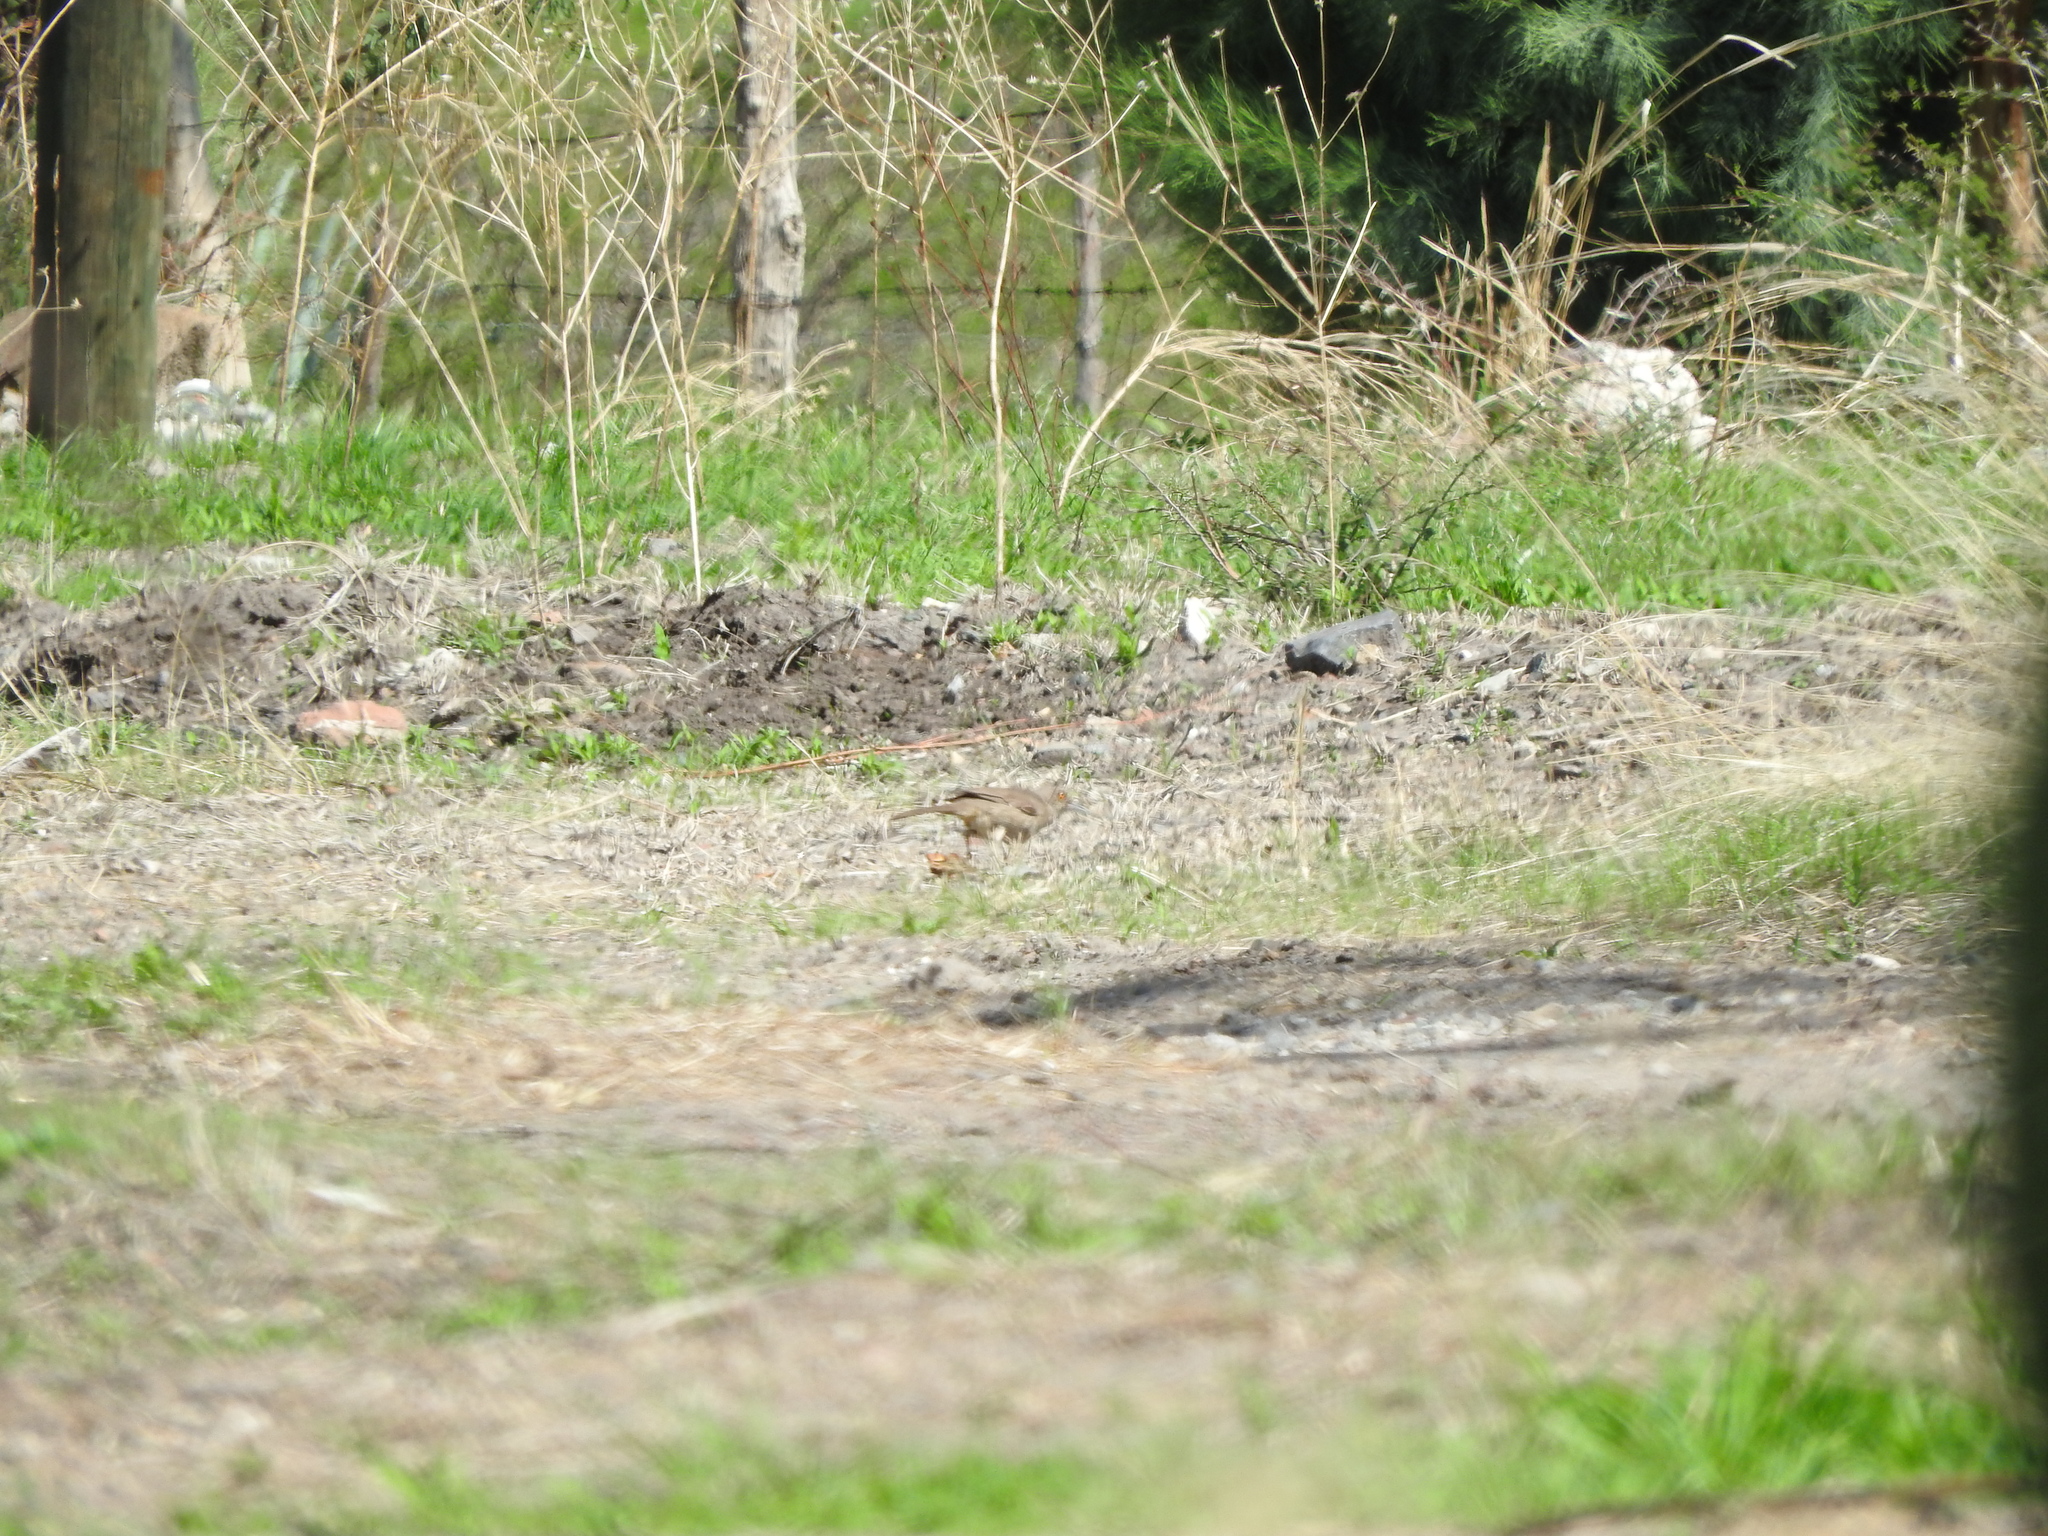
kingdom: Animalia
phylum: Chordata
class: Aves
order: Passeriformes
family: Mimidae
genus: Toxostoma
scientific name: Toxostoma curvirostre
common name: Curve-billed thrasher
